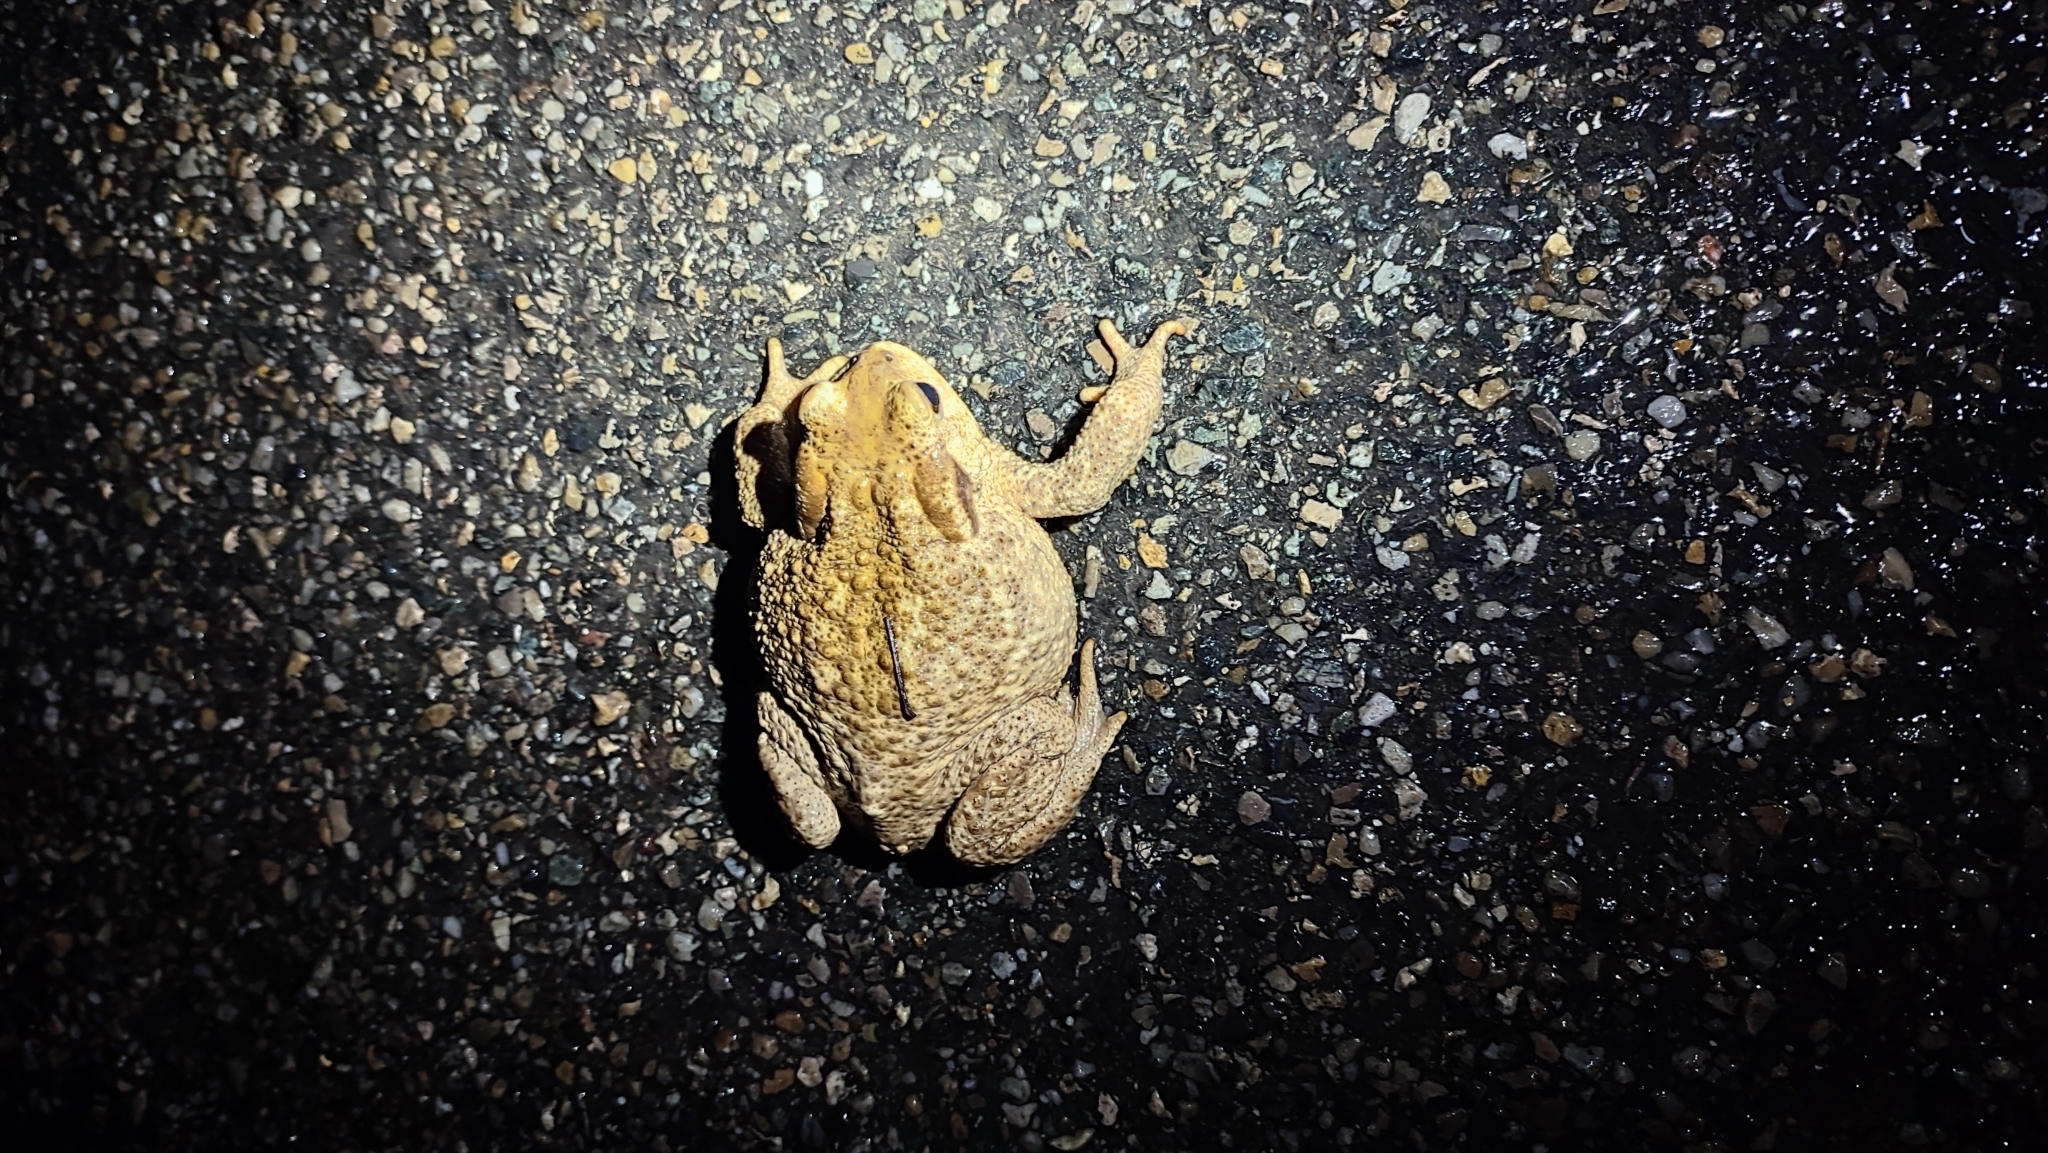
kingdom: Animalia
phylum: Chordata
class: Amphibia
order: Anura
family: Bufonidae
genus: Bufo
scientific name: Bufo spinosus
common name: Western common toad
